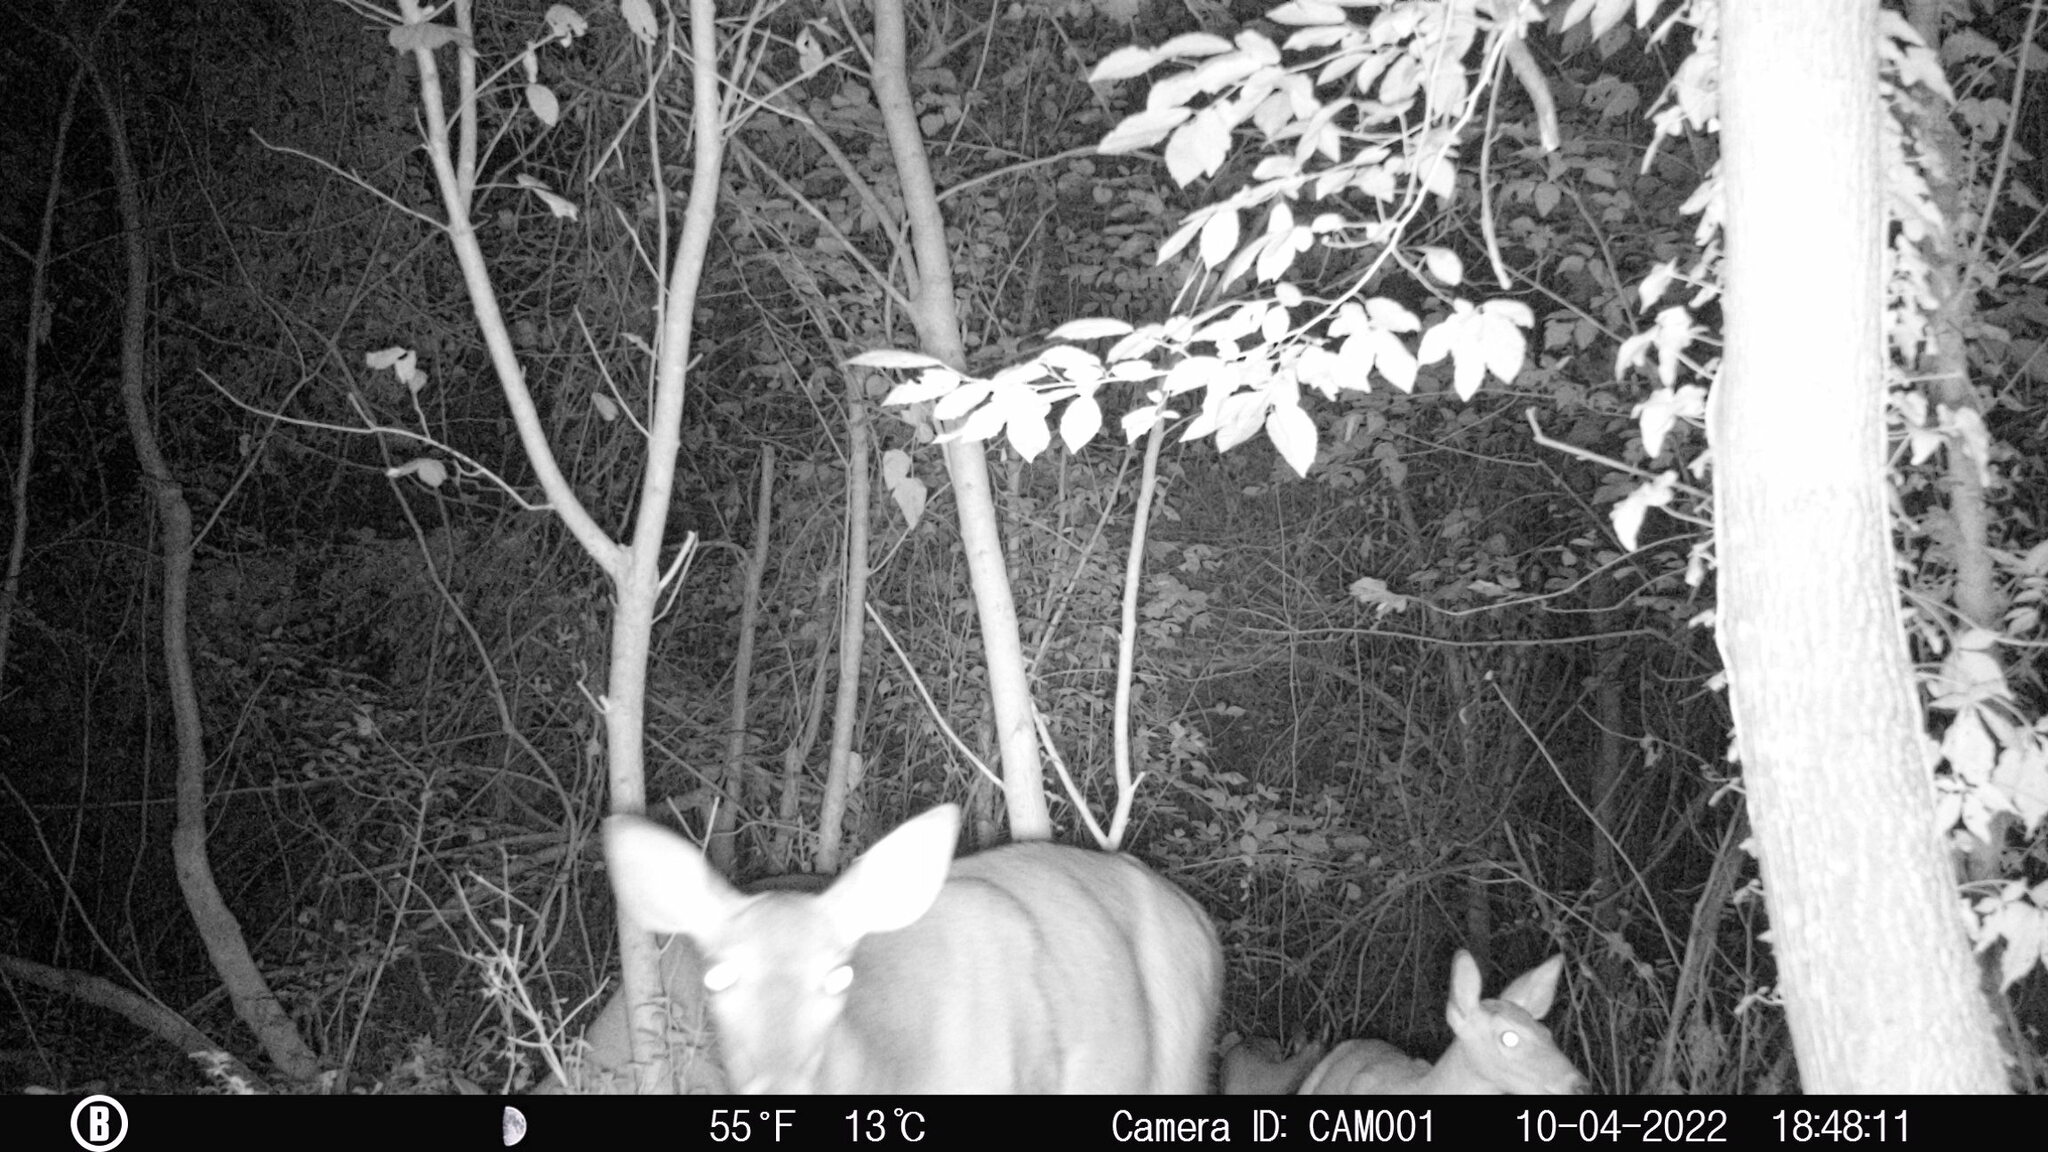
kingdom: Animalia
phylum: Chordata
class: Mammalia
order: Artiodactyla
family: Cervidae
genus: Odocoileus
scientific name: Odocoileus virginianus
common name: White-tailed deer
